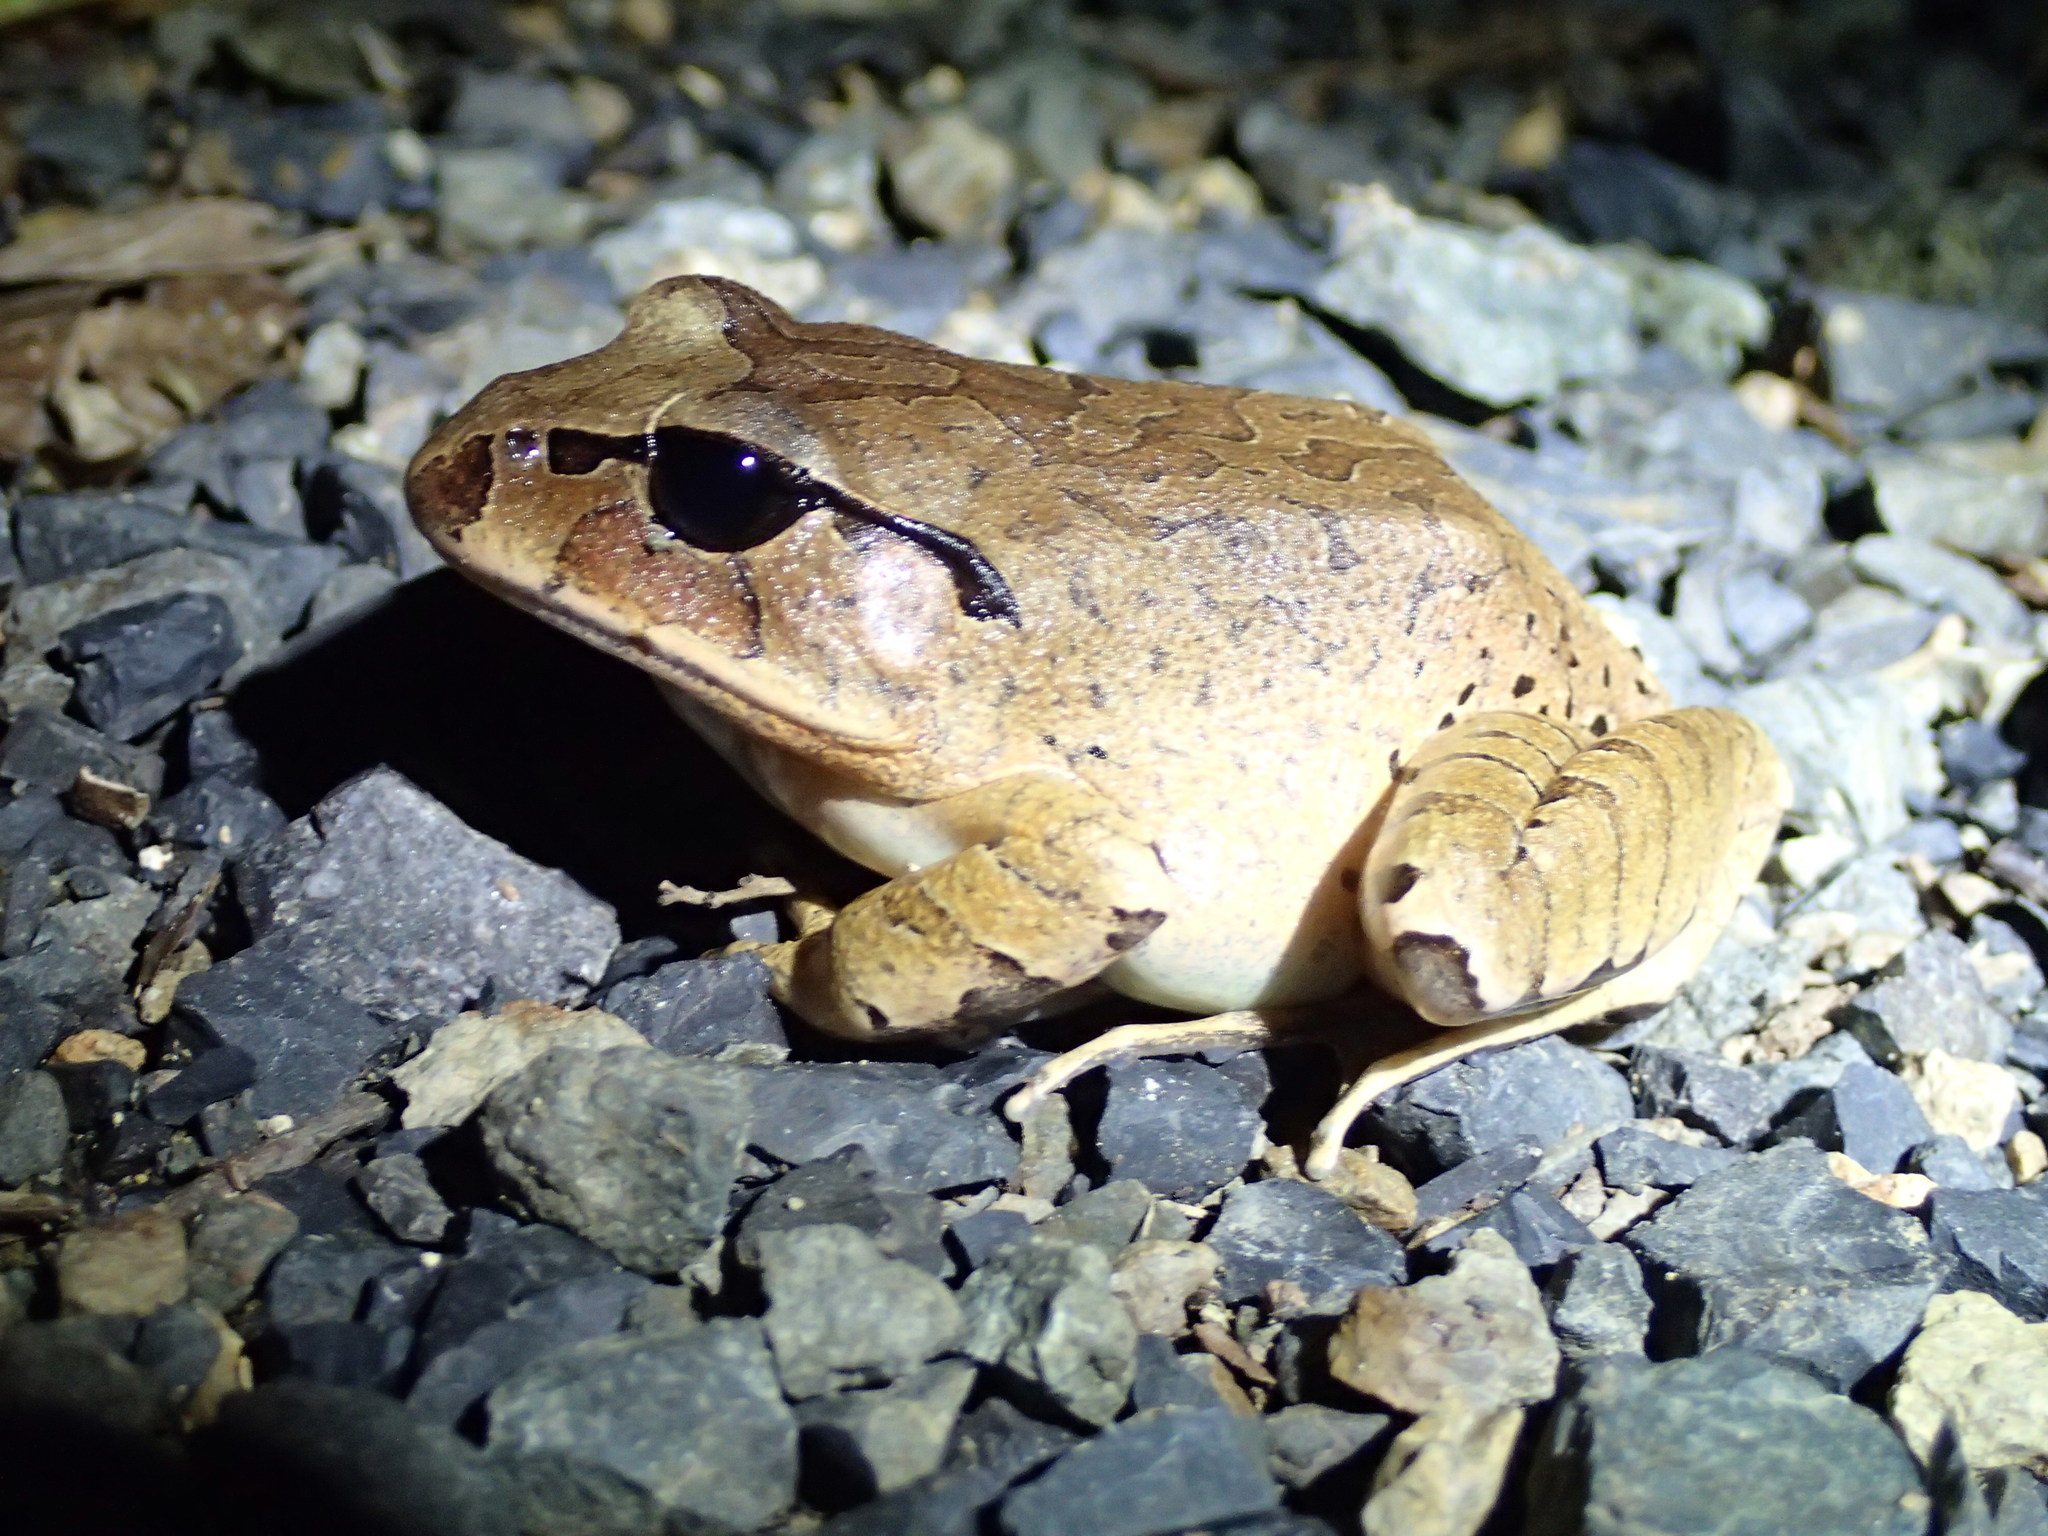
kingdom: Animalia
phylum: Chordata
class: Amphibia
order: Anura
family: Myobatrachidae
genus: Mixophyes
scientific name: Mixophyes fasciolatus
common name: Great barred river-frog
